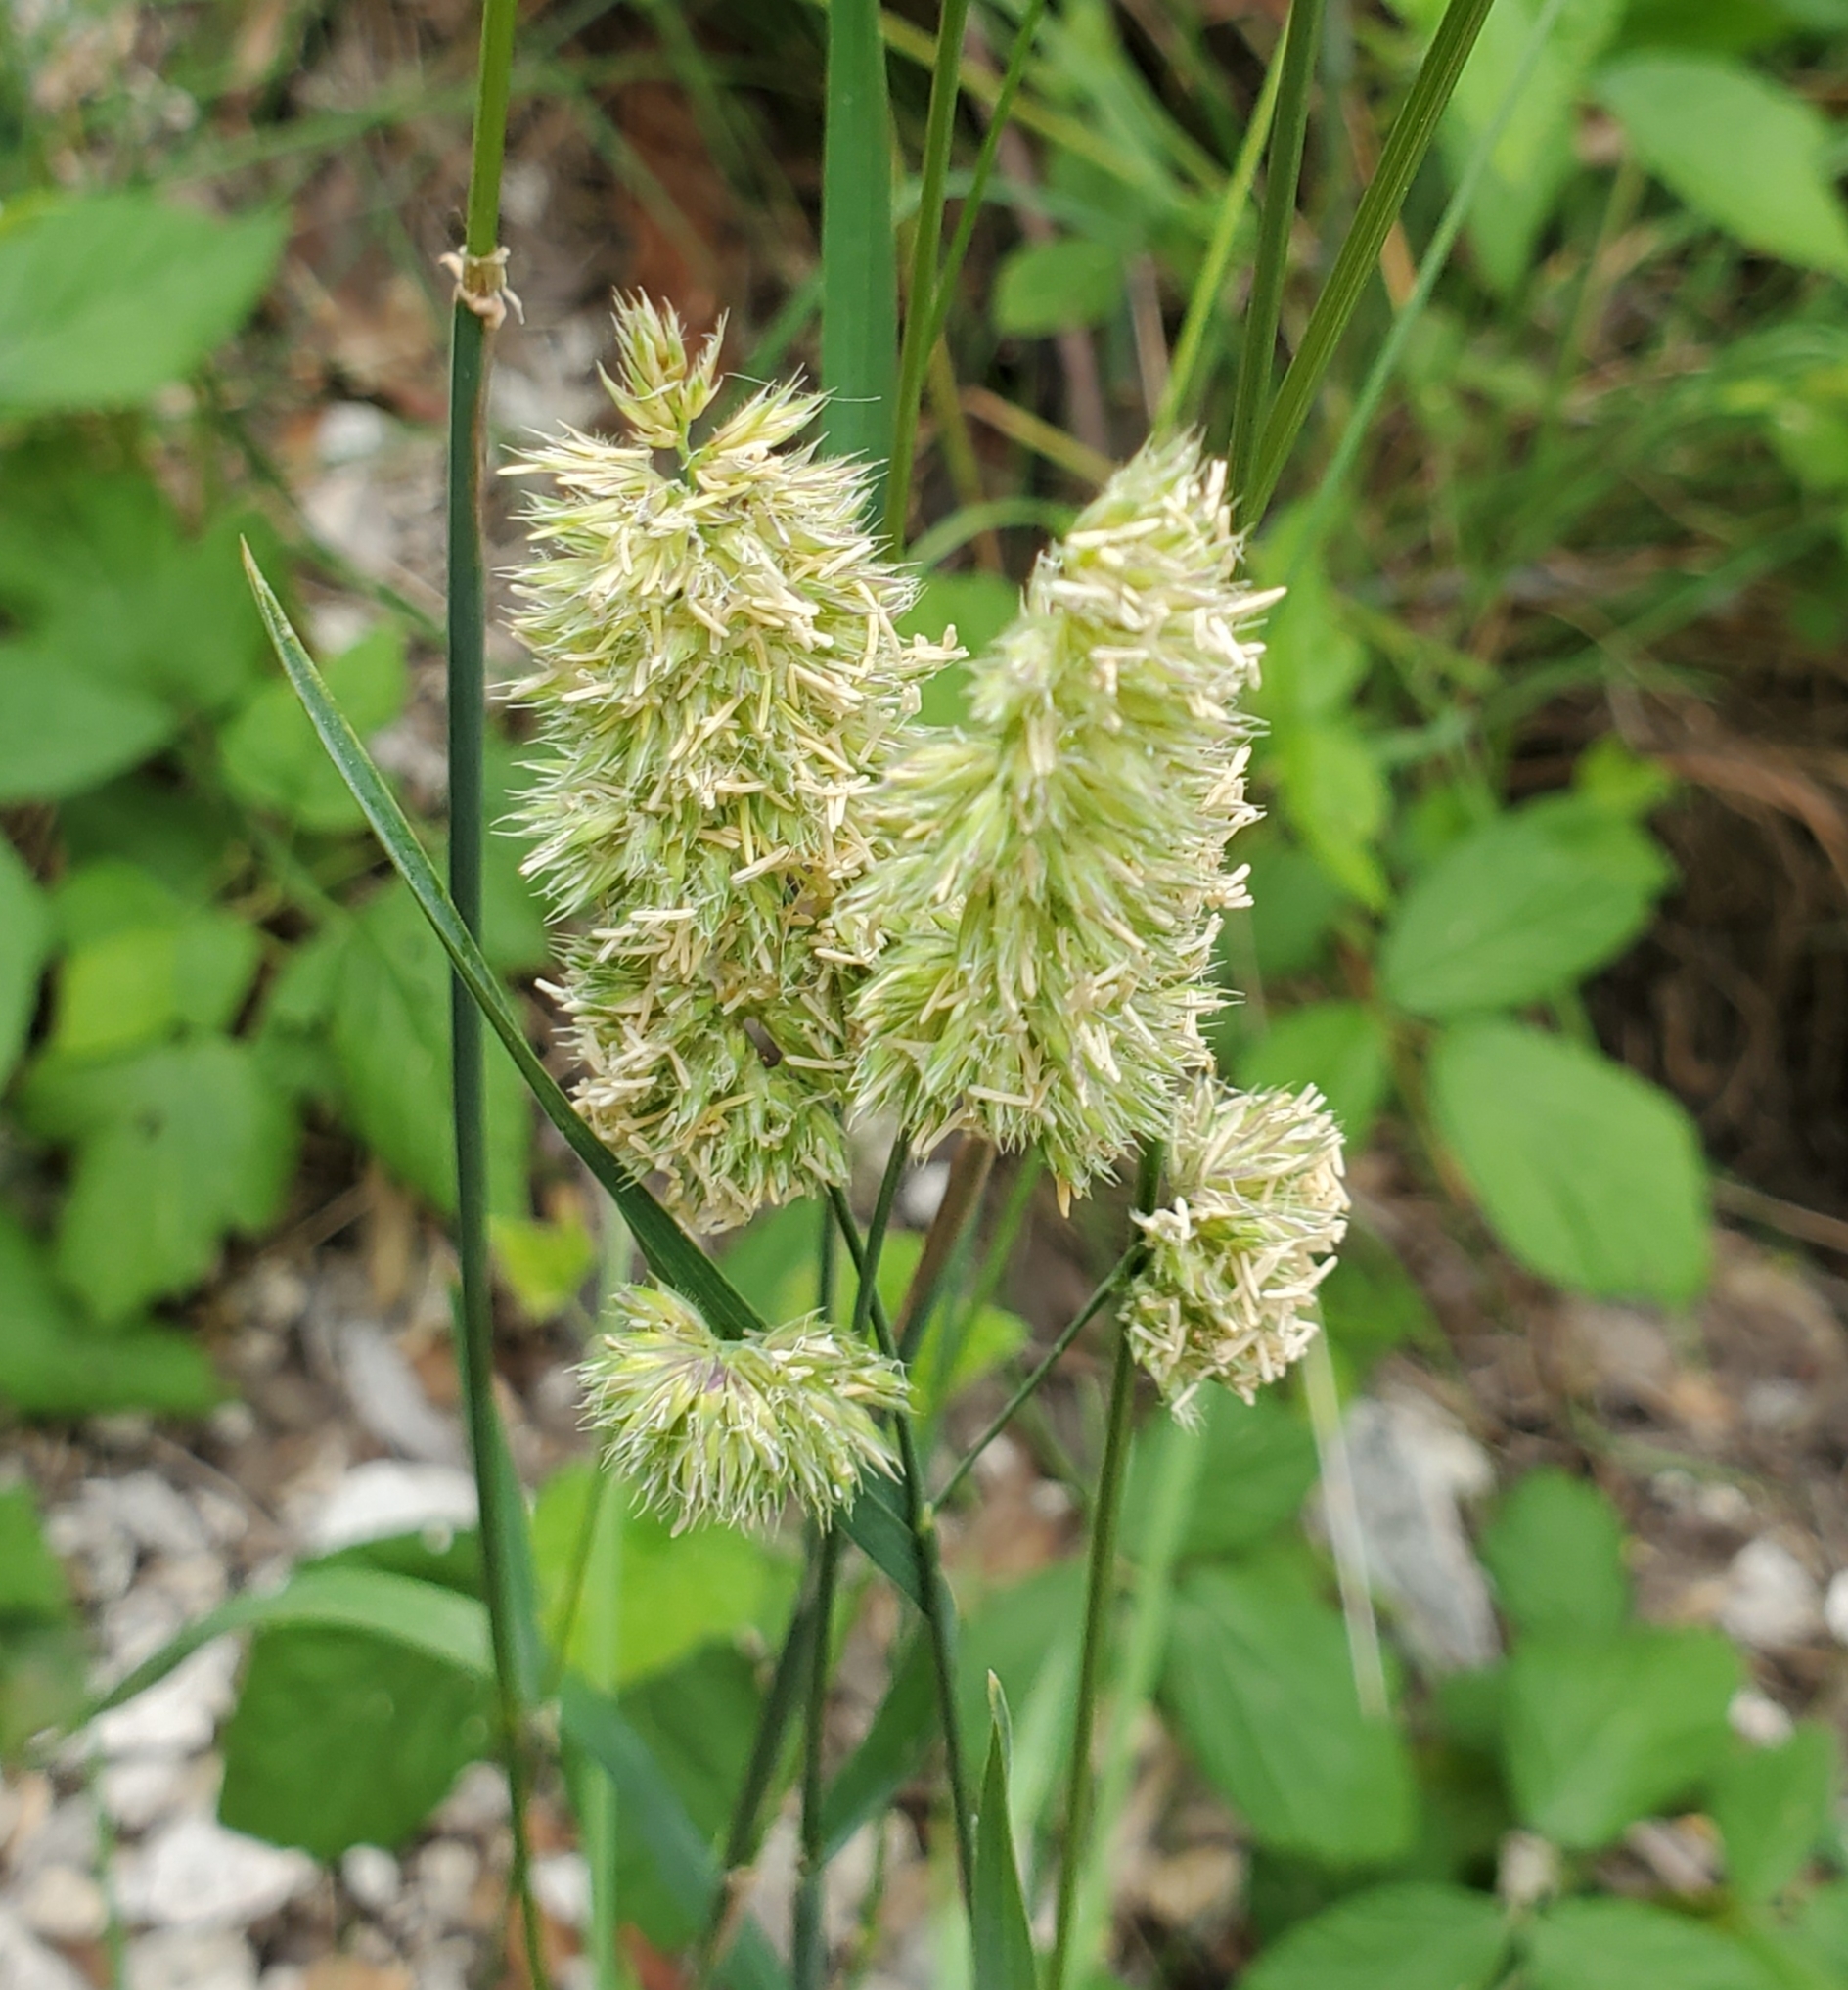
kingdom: Plantae
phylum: Tracheophyta
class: Liliopsida
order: Poales
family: Poaceae
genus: Lamarckia
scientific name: Lamarckia aurea
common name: Golden dog's-tail
